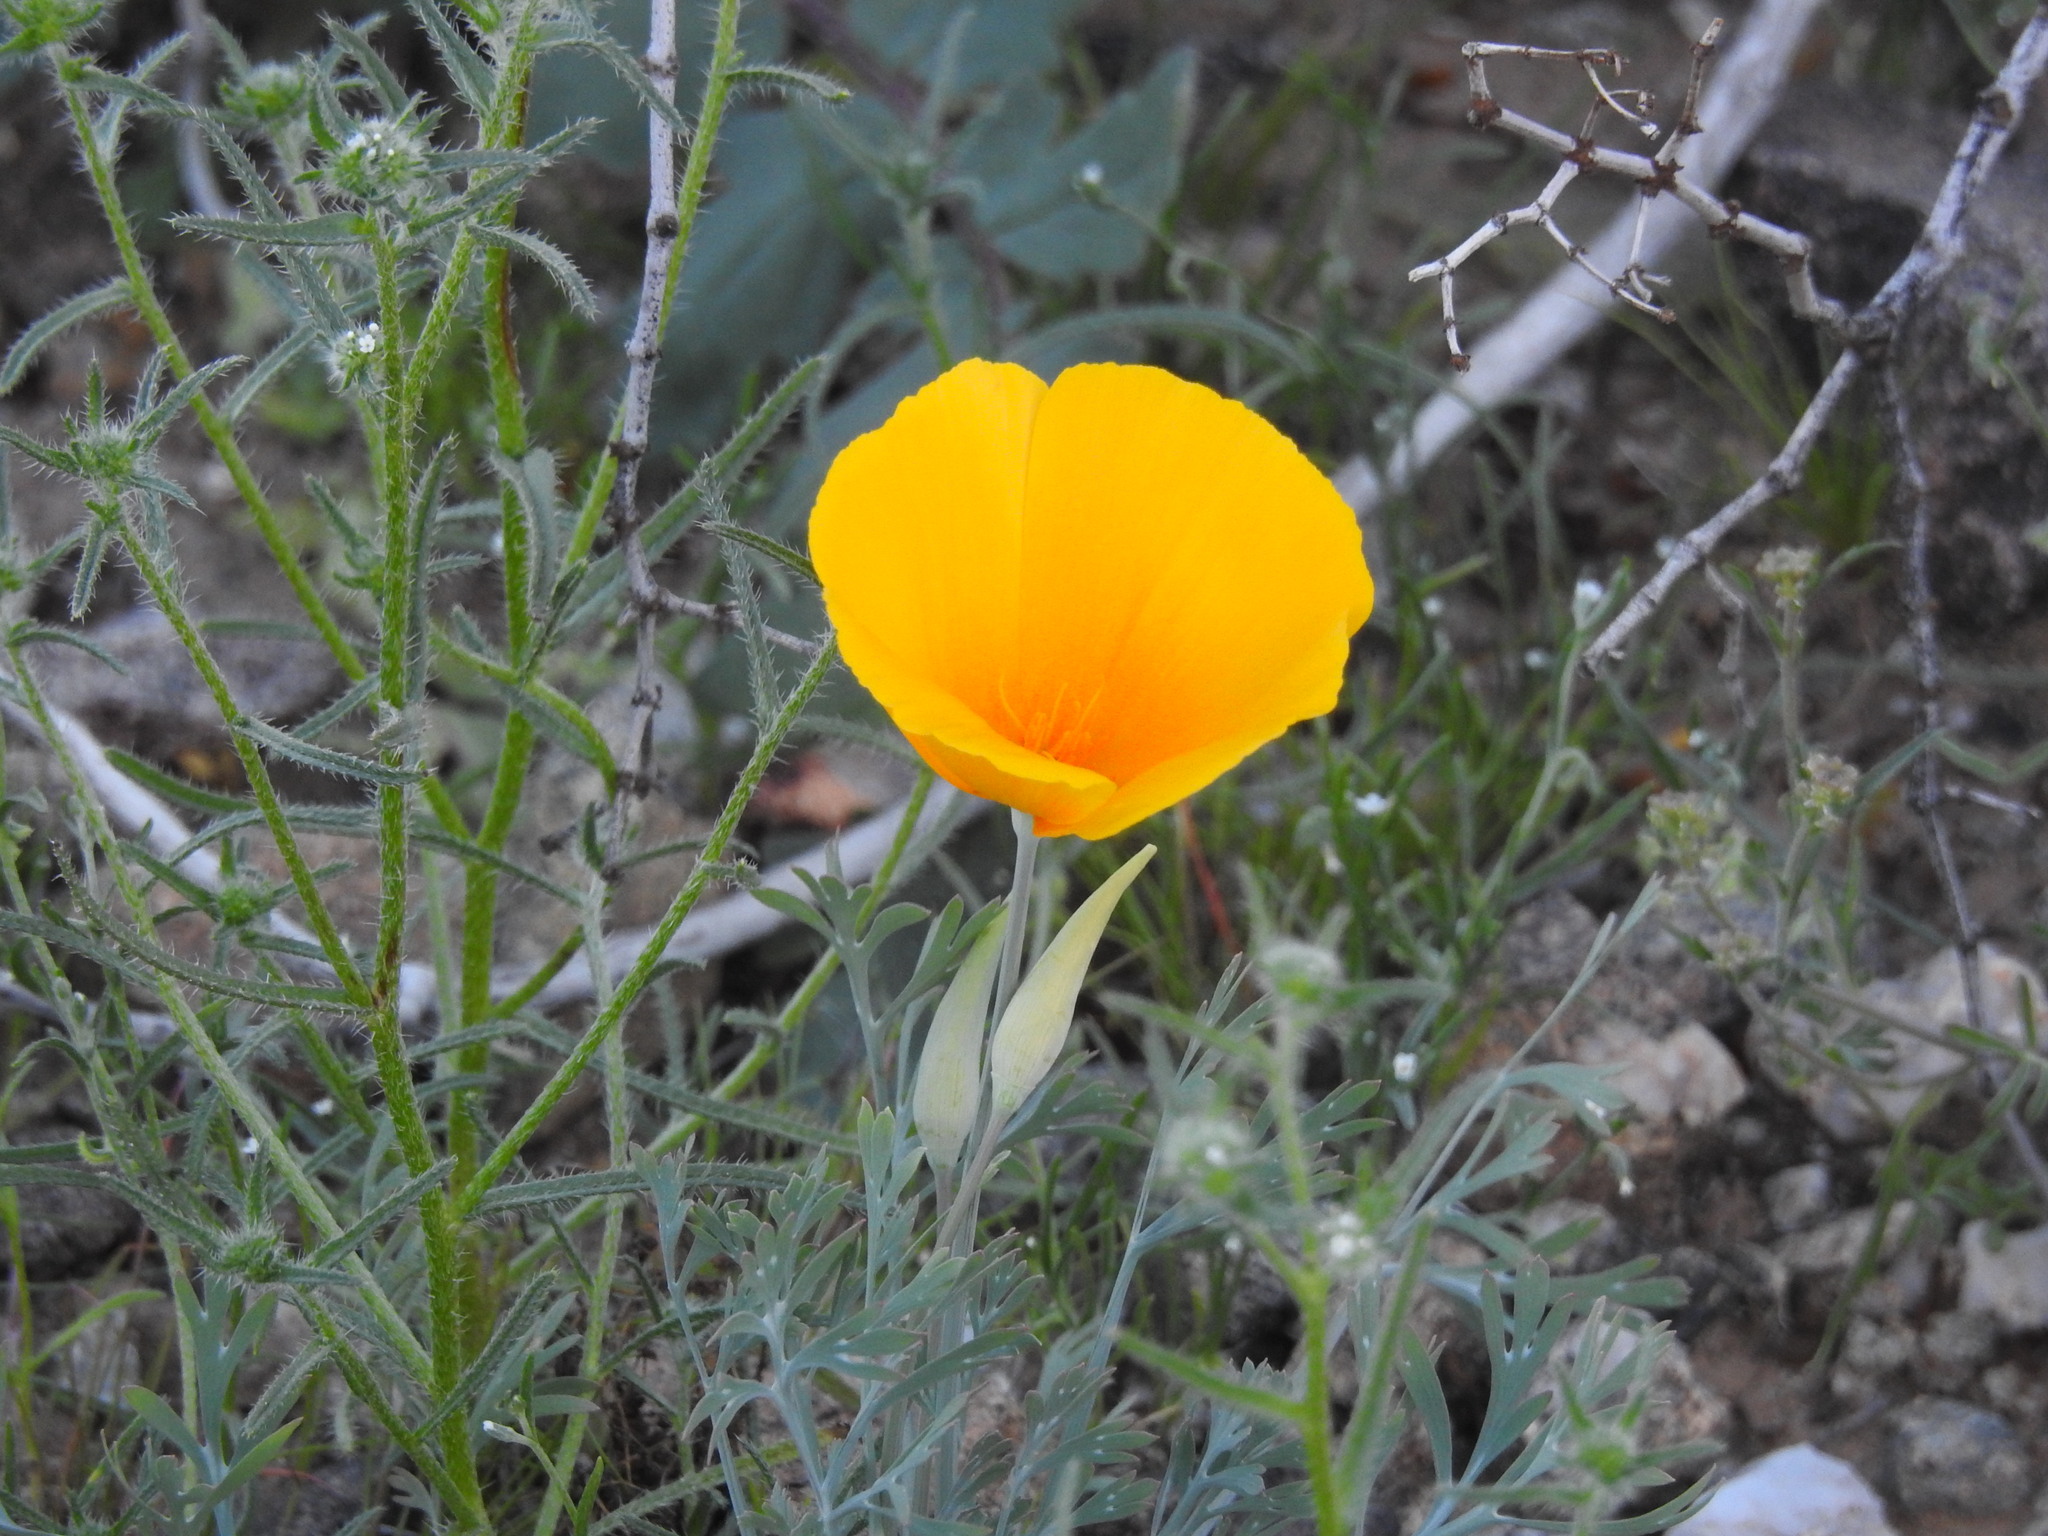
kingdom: Plantae
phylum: Tracheophyta
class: Magnoliopsida
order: Ranunculales
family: Papaveraceae
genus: Eschscholzia
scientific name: Eschscholzia californica
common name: California poppy
